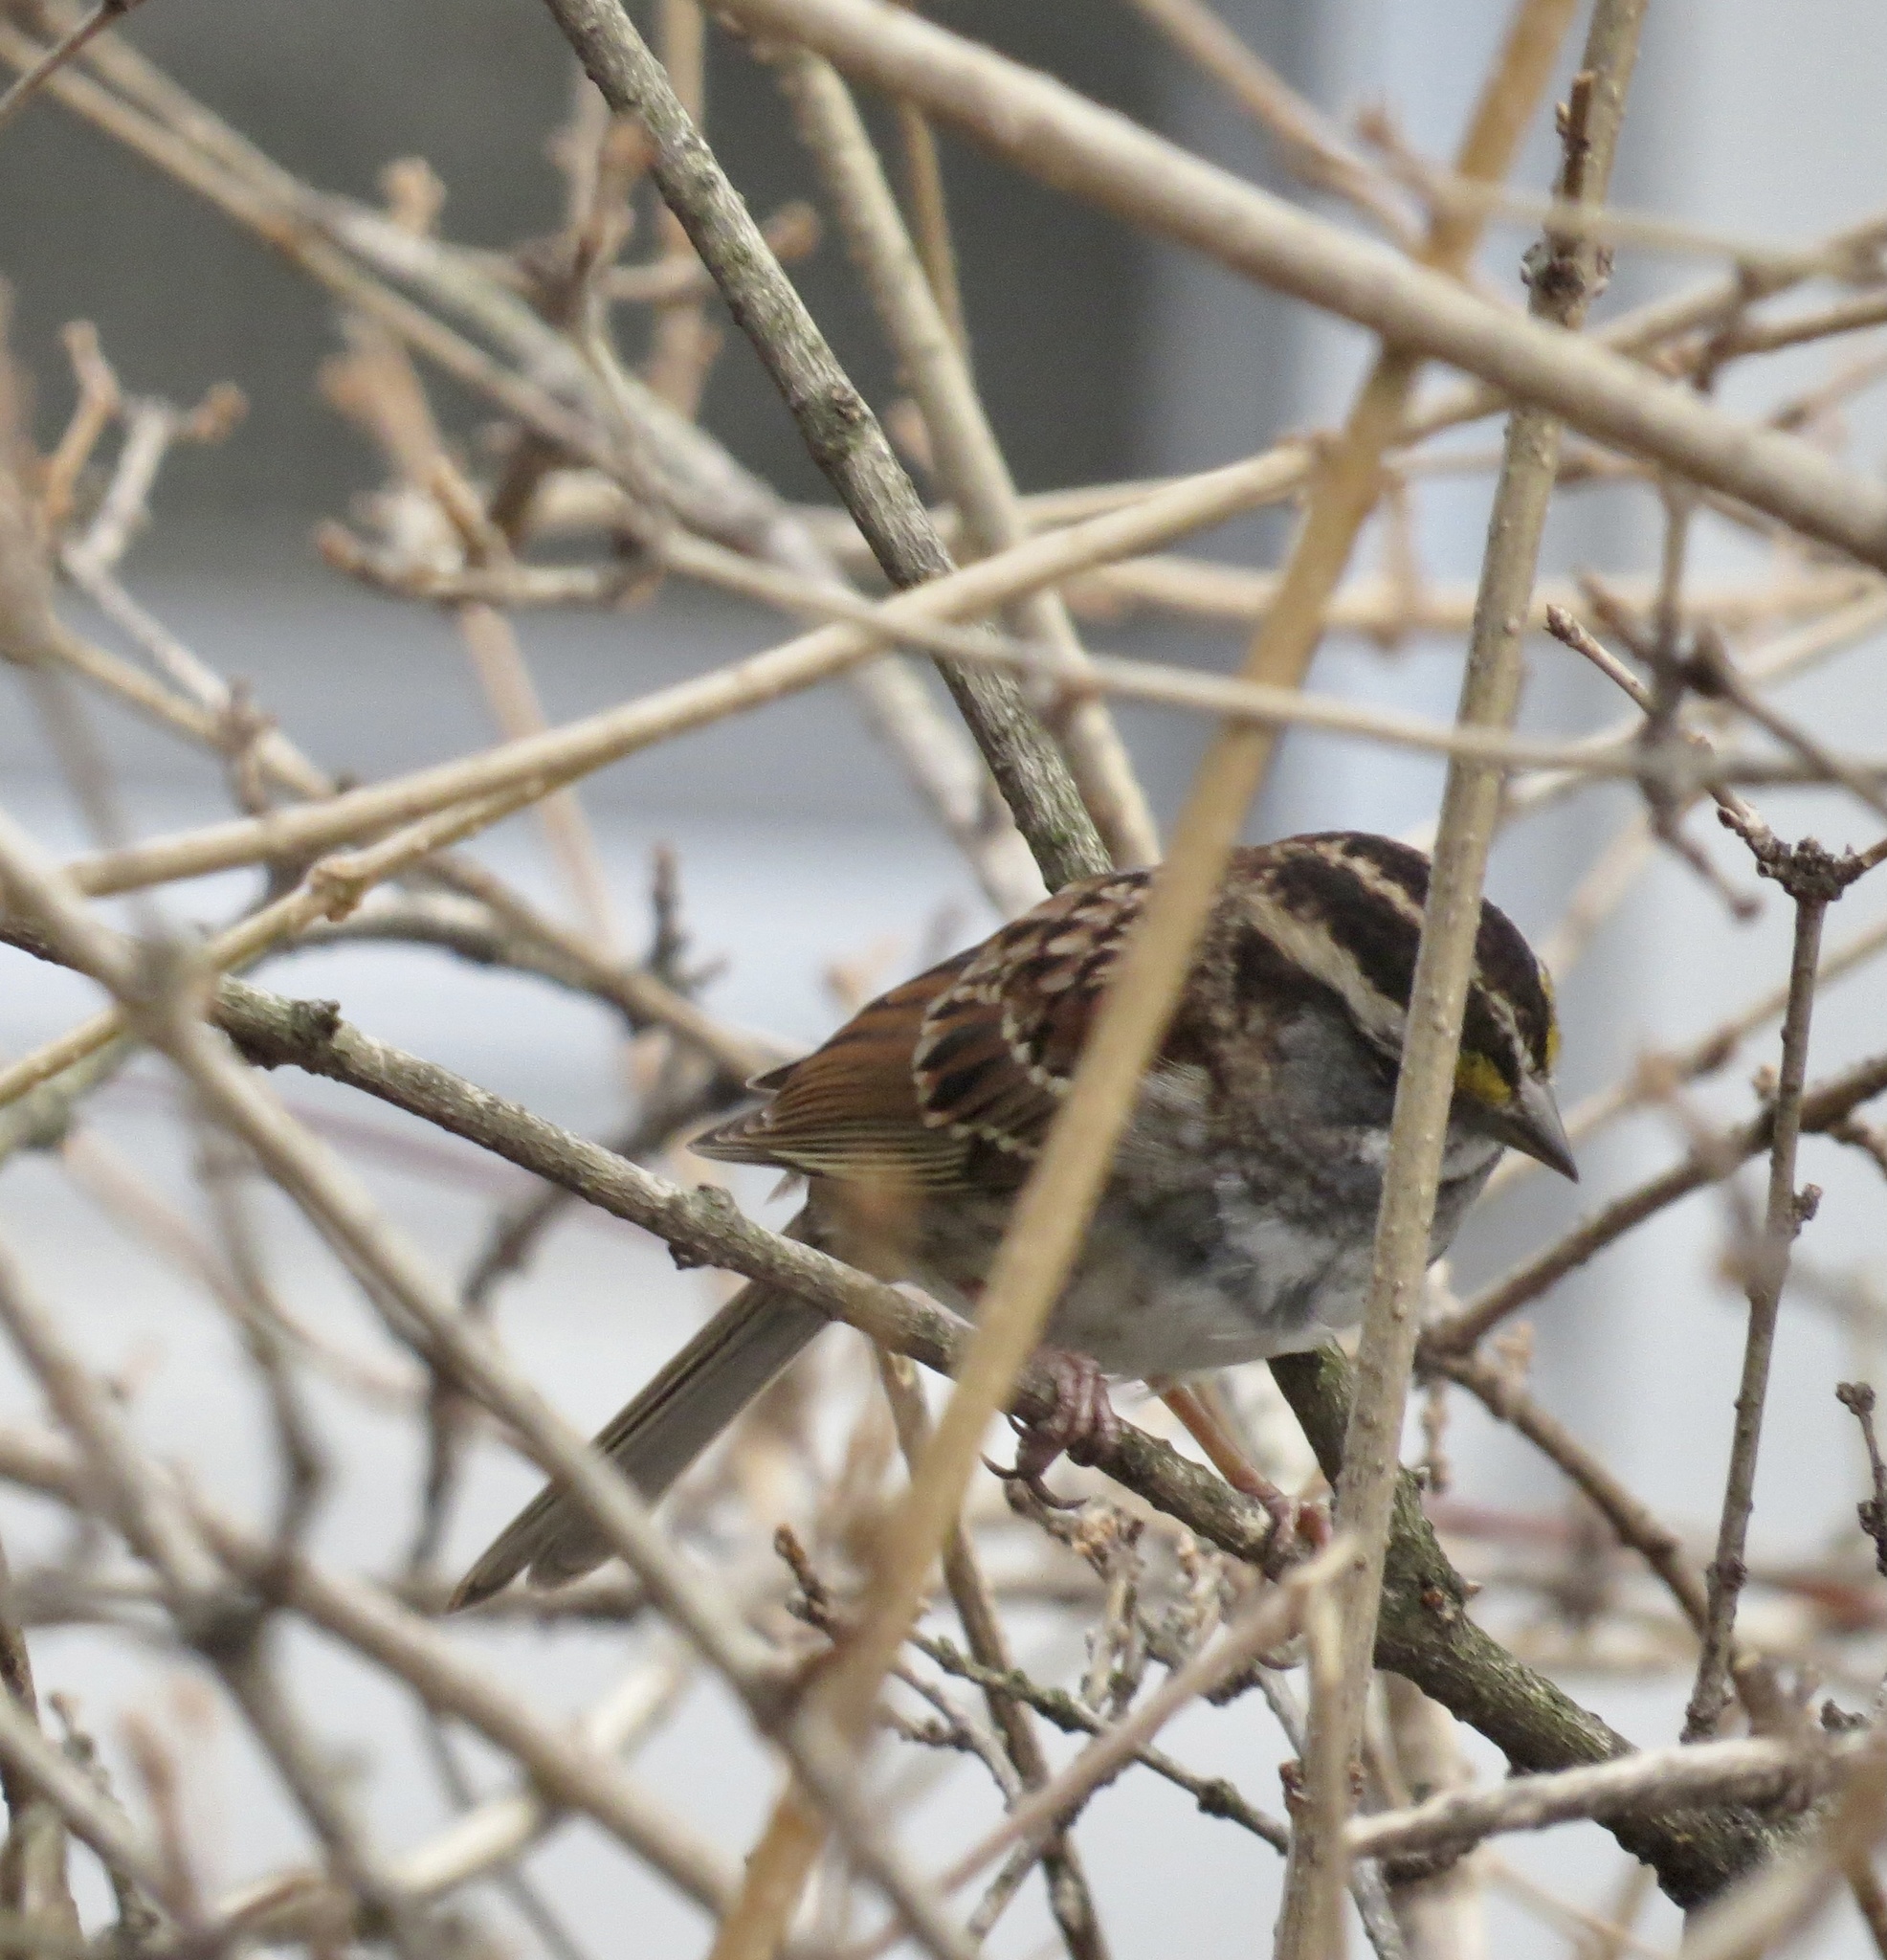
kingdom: Animalia
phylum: Chordata
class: Aves
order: Passeriformes
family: Passerellidae
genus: Zonotrichia
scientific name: Zonotrichia albicollis
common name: White-throated sparrow
